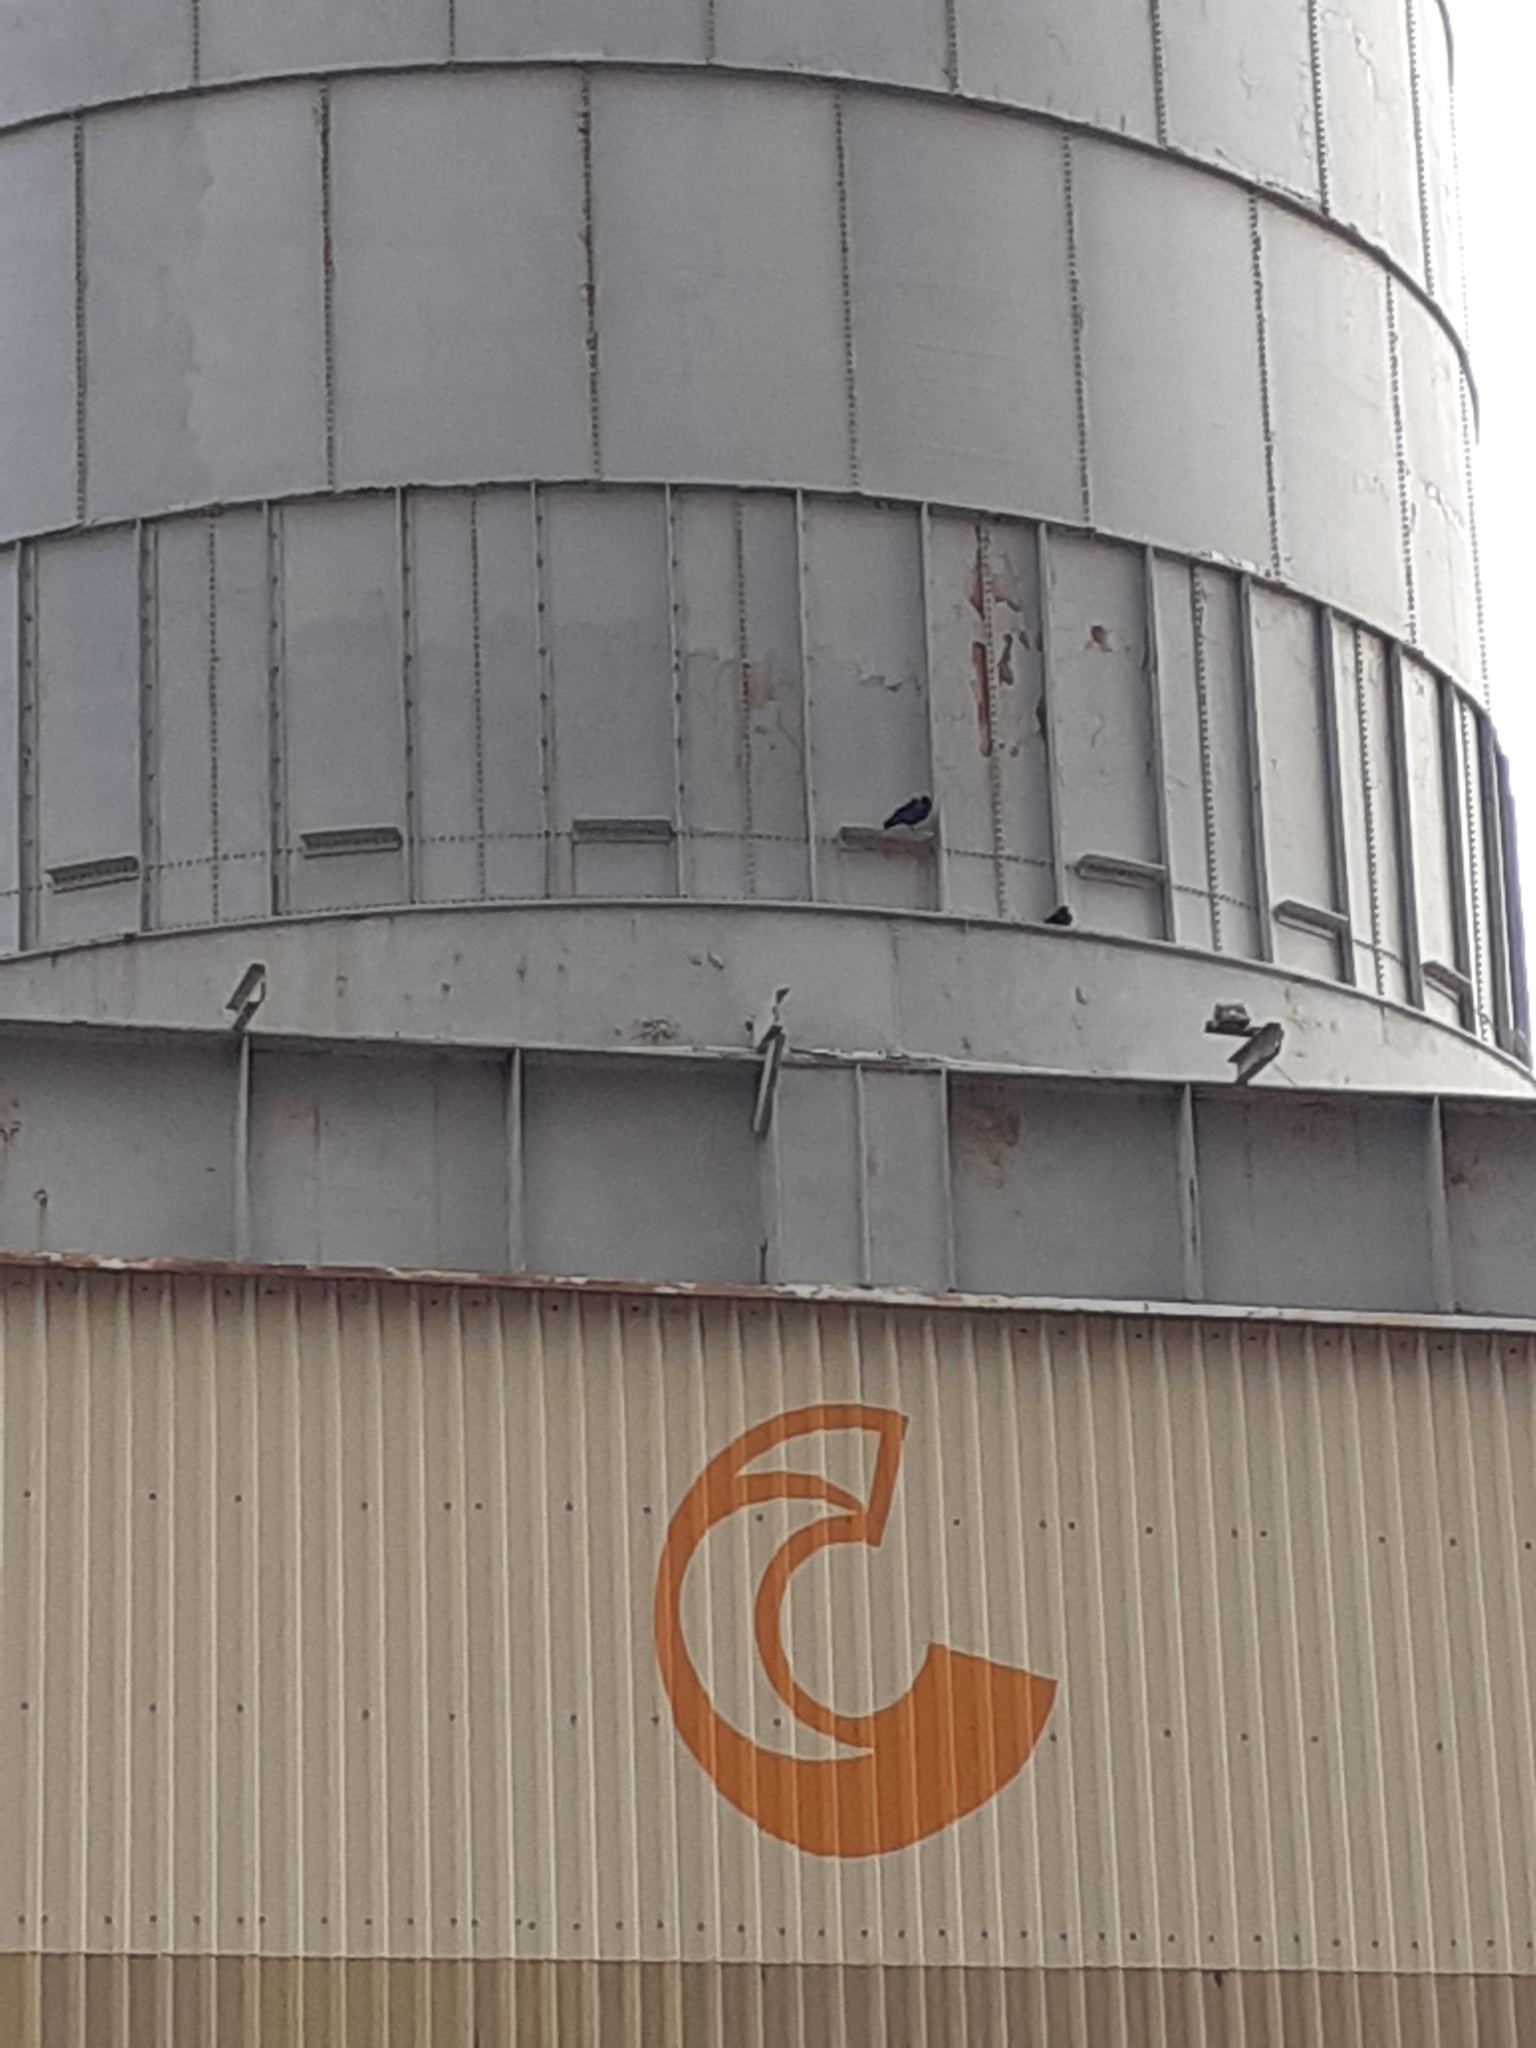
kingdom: Animalia
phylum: Chordata
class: Aves
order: Passeriformes
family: Corvidae
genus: Pyrrhocorax
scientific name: Pyrrhocorax pyrrhocorax
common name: Red-billed chough
